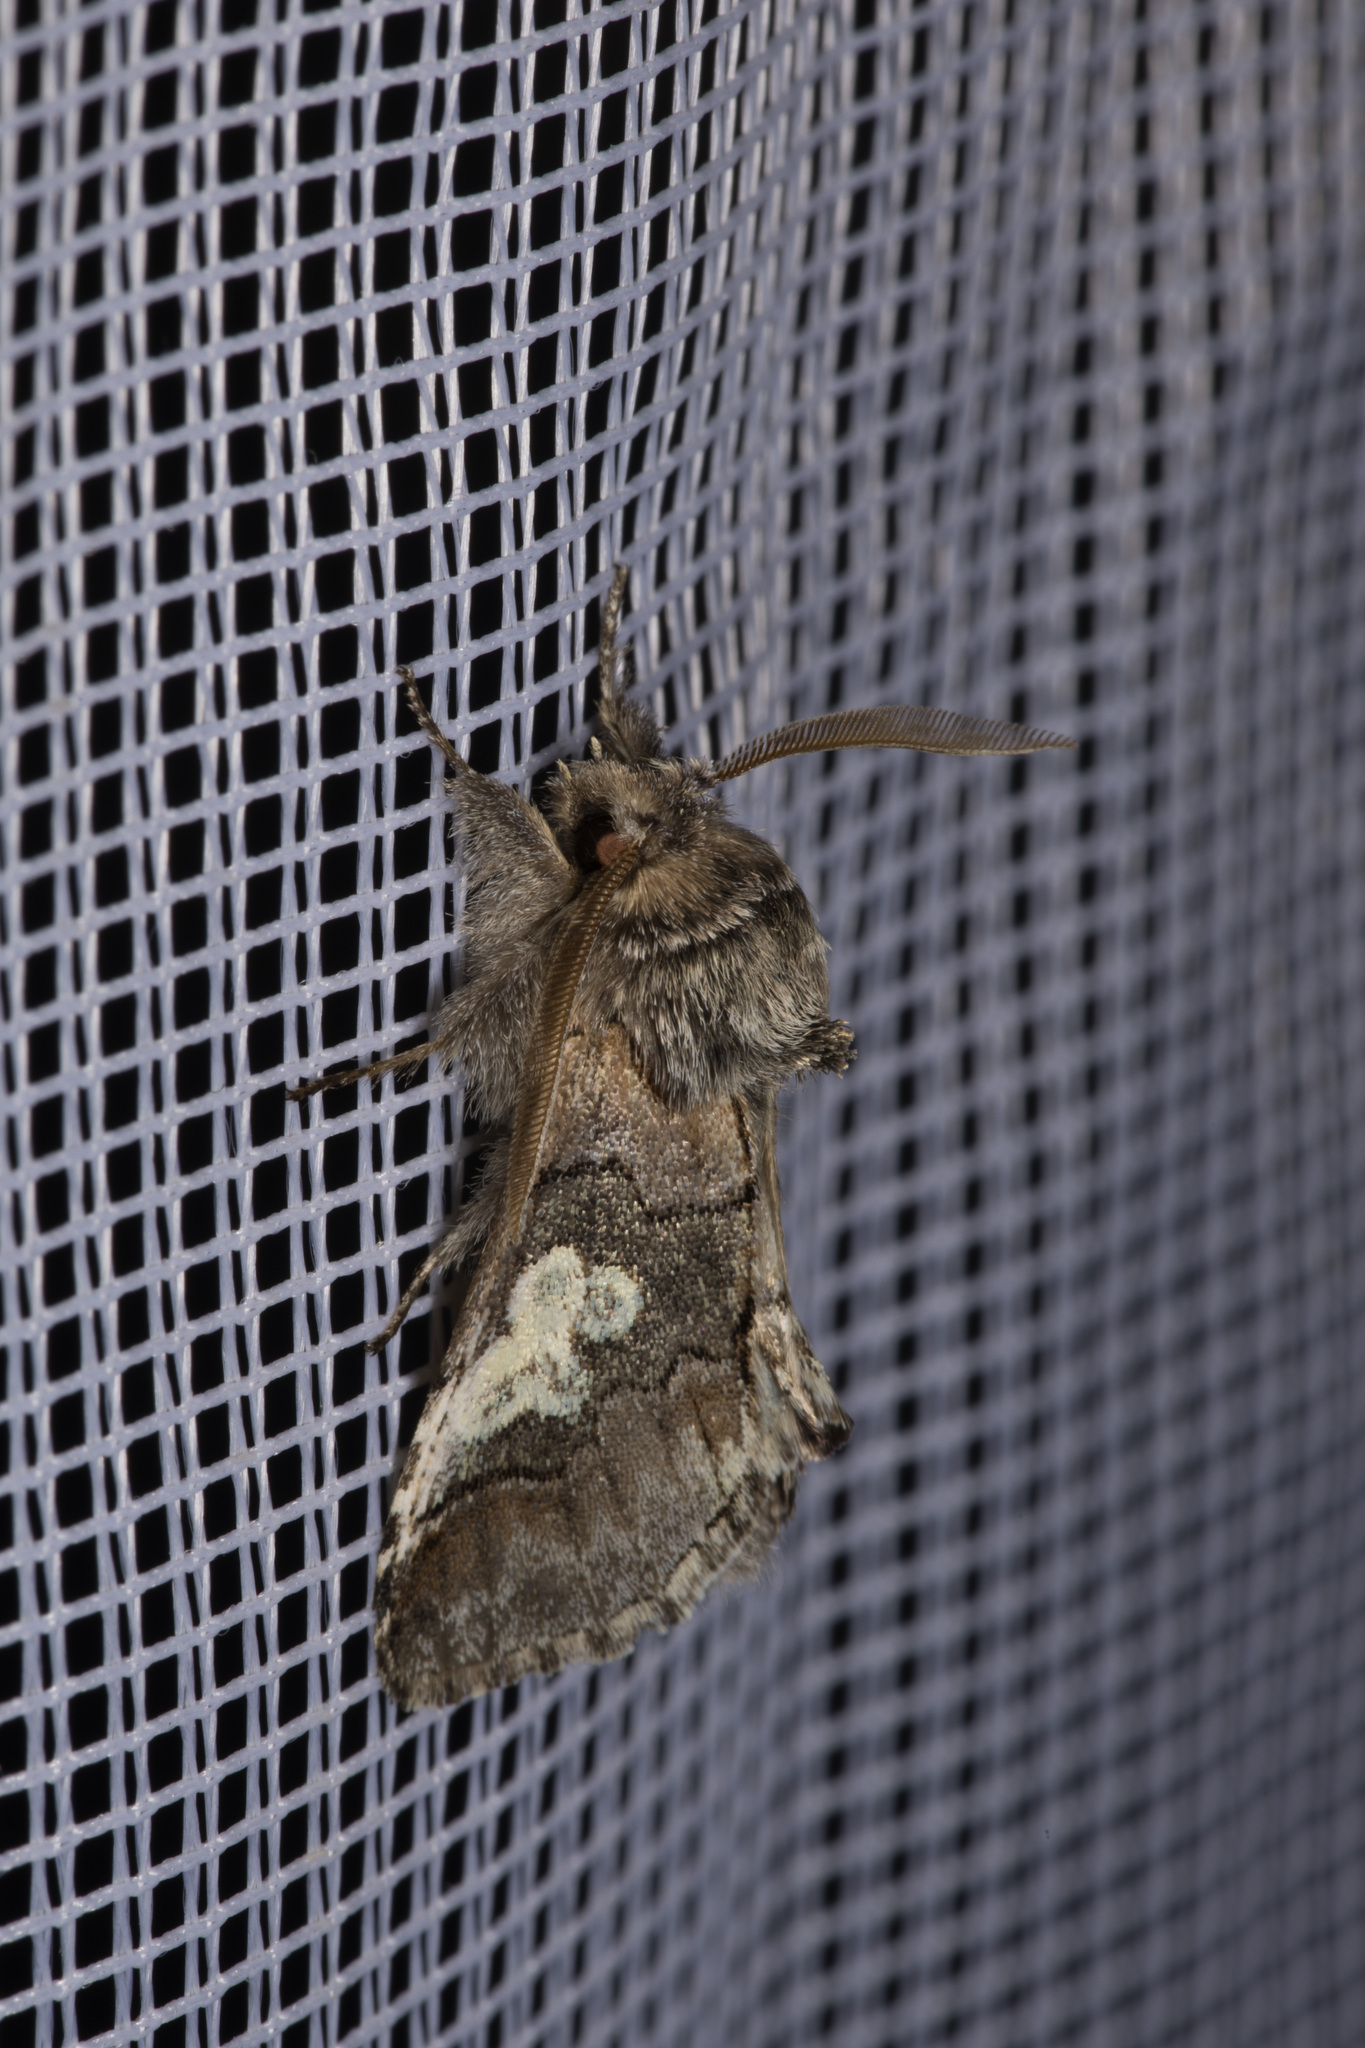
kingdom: Animalia
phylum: Arthropoda
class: Insecta
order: Lepidoptera
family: Noctuidae
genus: Diloba
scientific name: Diloba caeruleocephala
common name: Figure of eight
